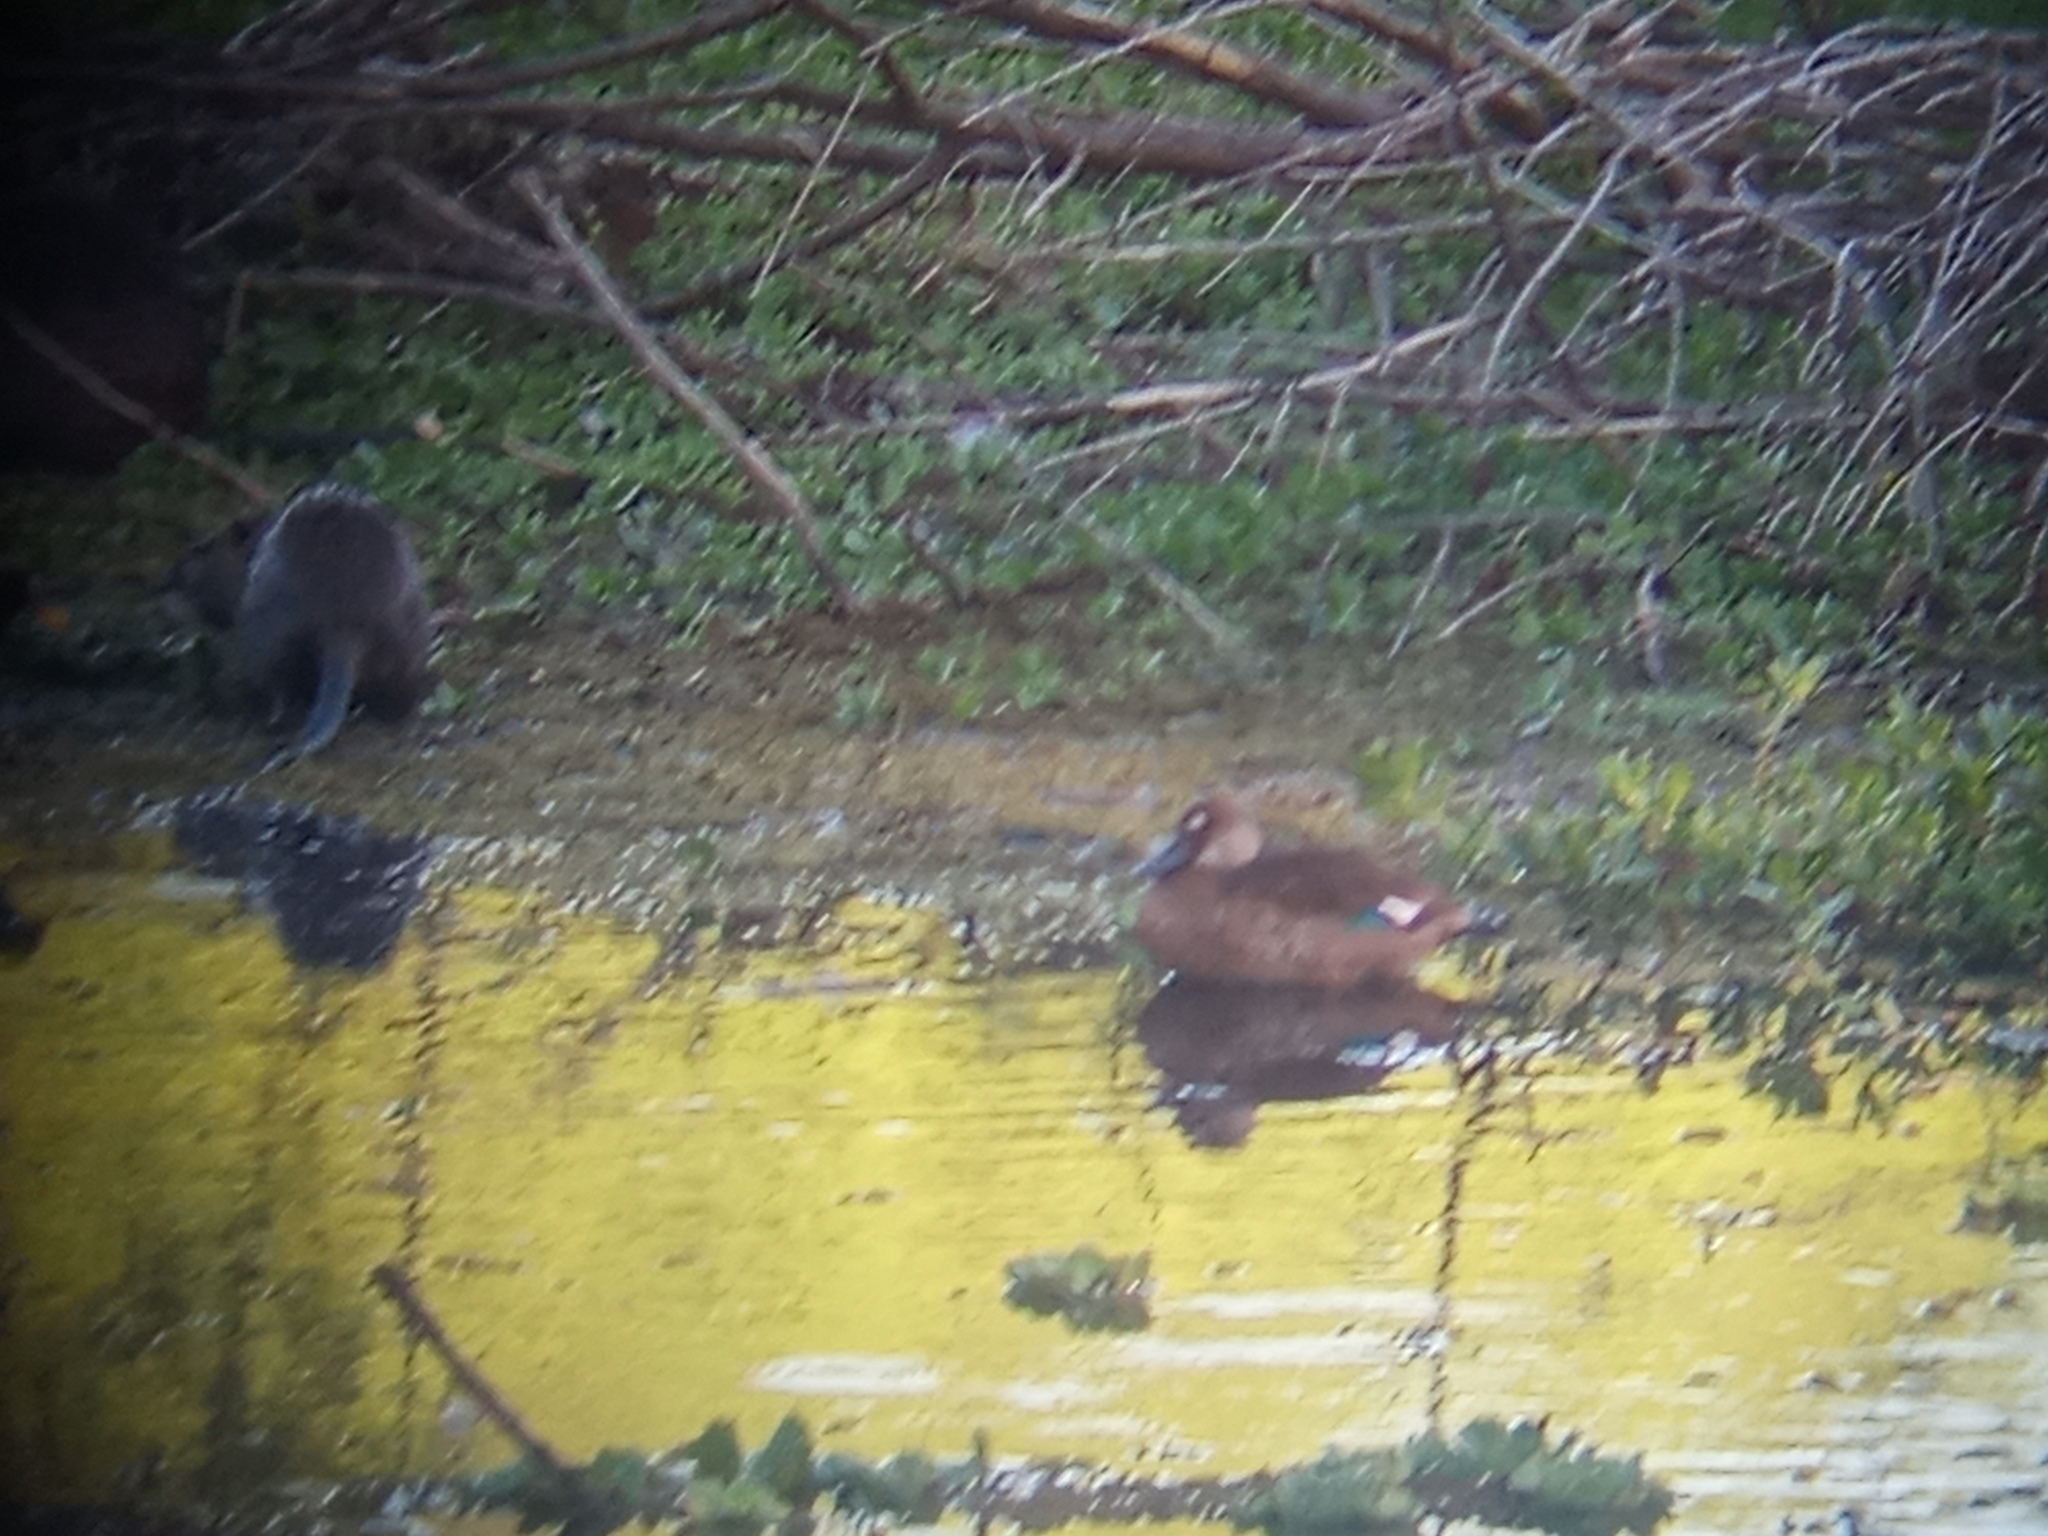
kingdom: Animalia
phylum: Chordata
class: Mammalia
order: Rodentia
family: Myocastoridae
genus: Myocastor
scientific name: Myocastor coypus
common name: Coypu
